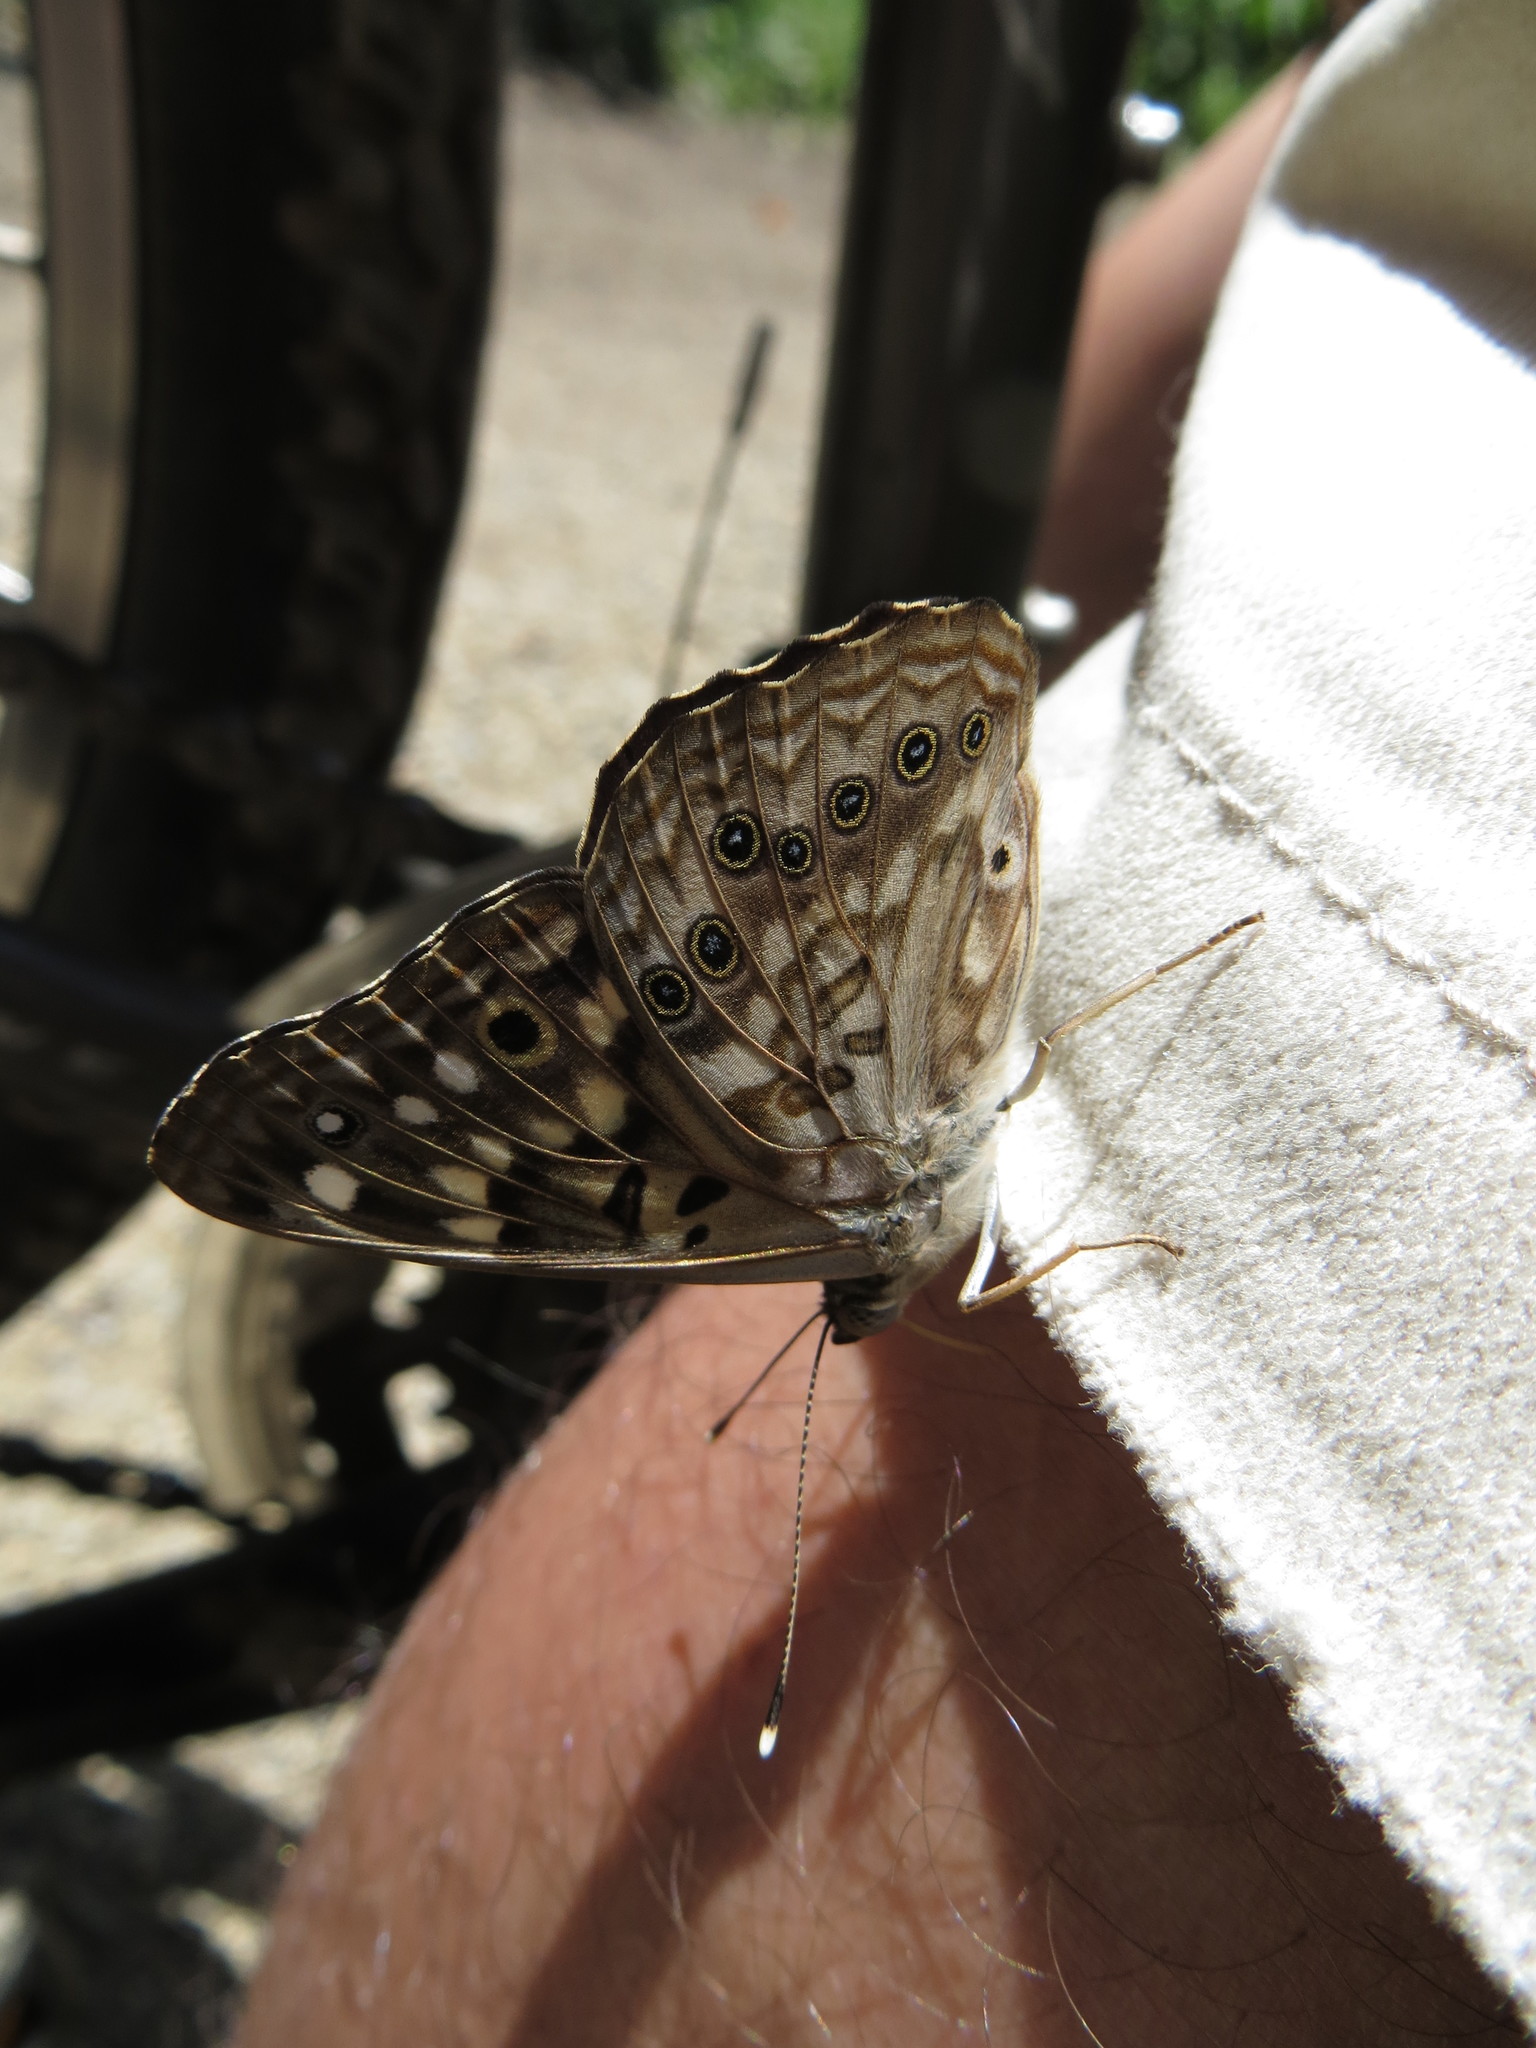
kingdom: Animalia
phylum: Arthropoda
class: Insecta
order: Lepidoptera
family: Nymphalidae
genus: Asterocampa
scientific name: Asterocampa celtis
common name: Hackberry emperor
